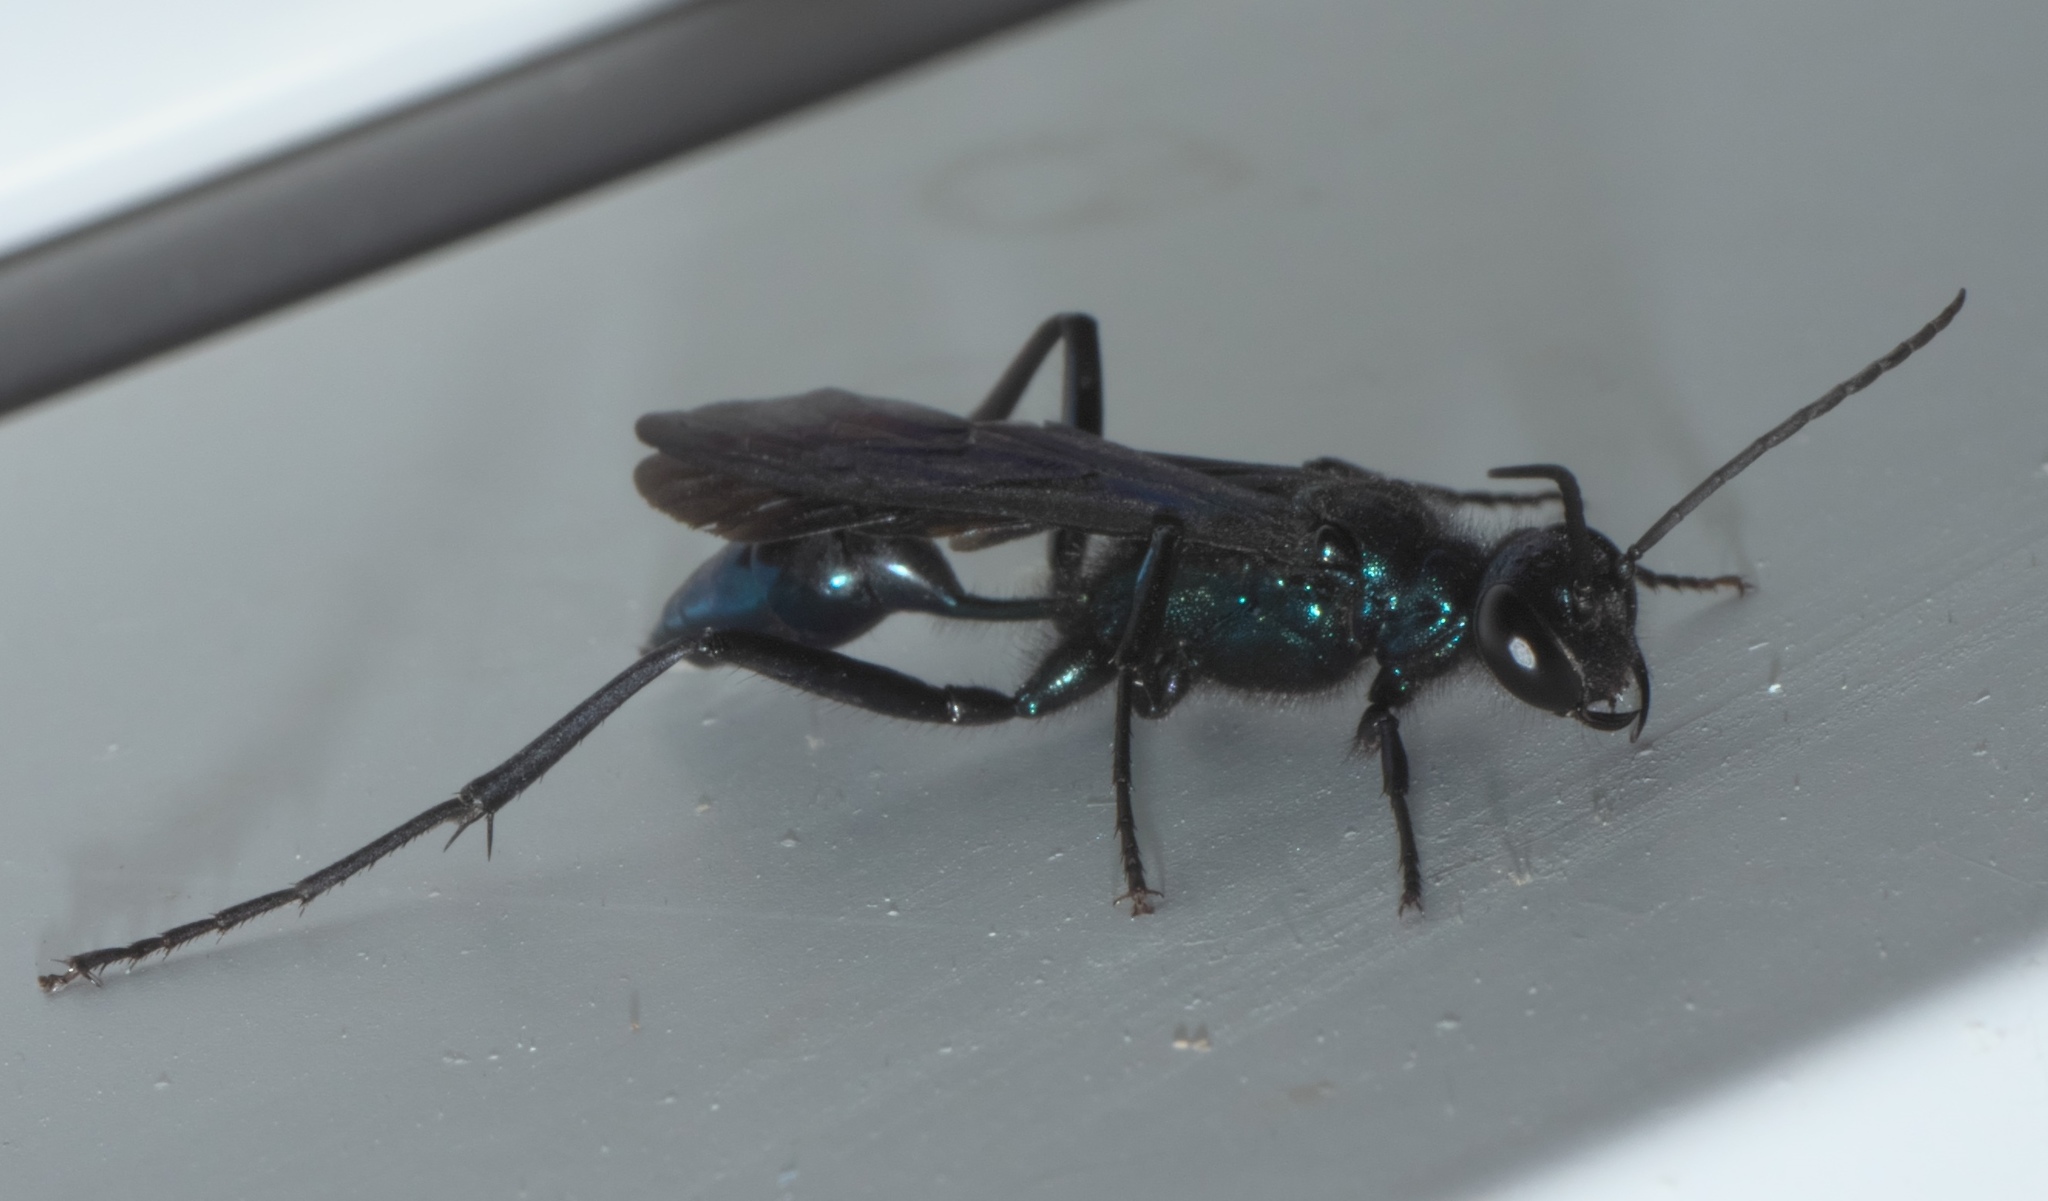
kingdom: Animalia
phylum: Arthropoda
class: Insecta
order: Hymenoptera
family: Sphecidae
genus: Chalybion
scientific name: Chalybion californicum
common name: Mud dauber
